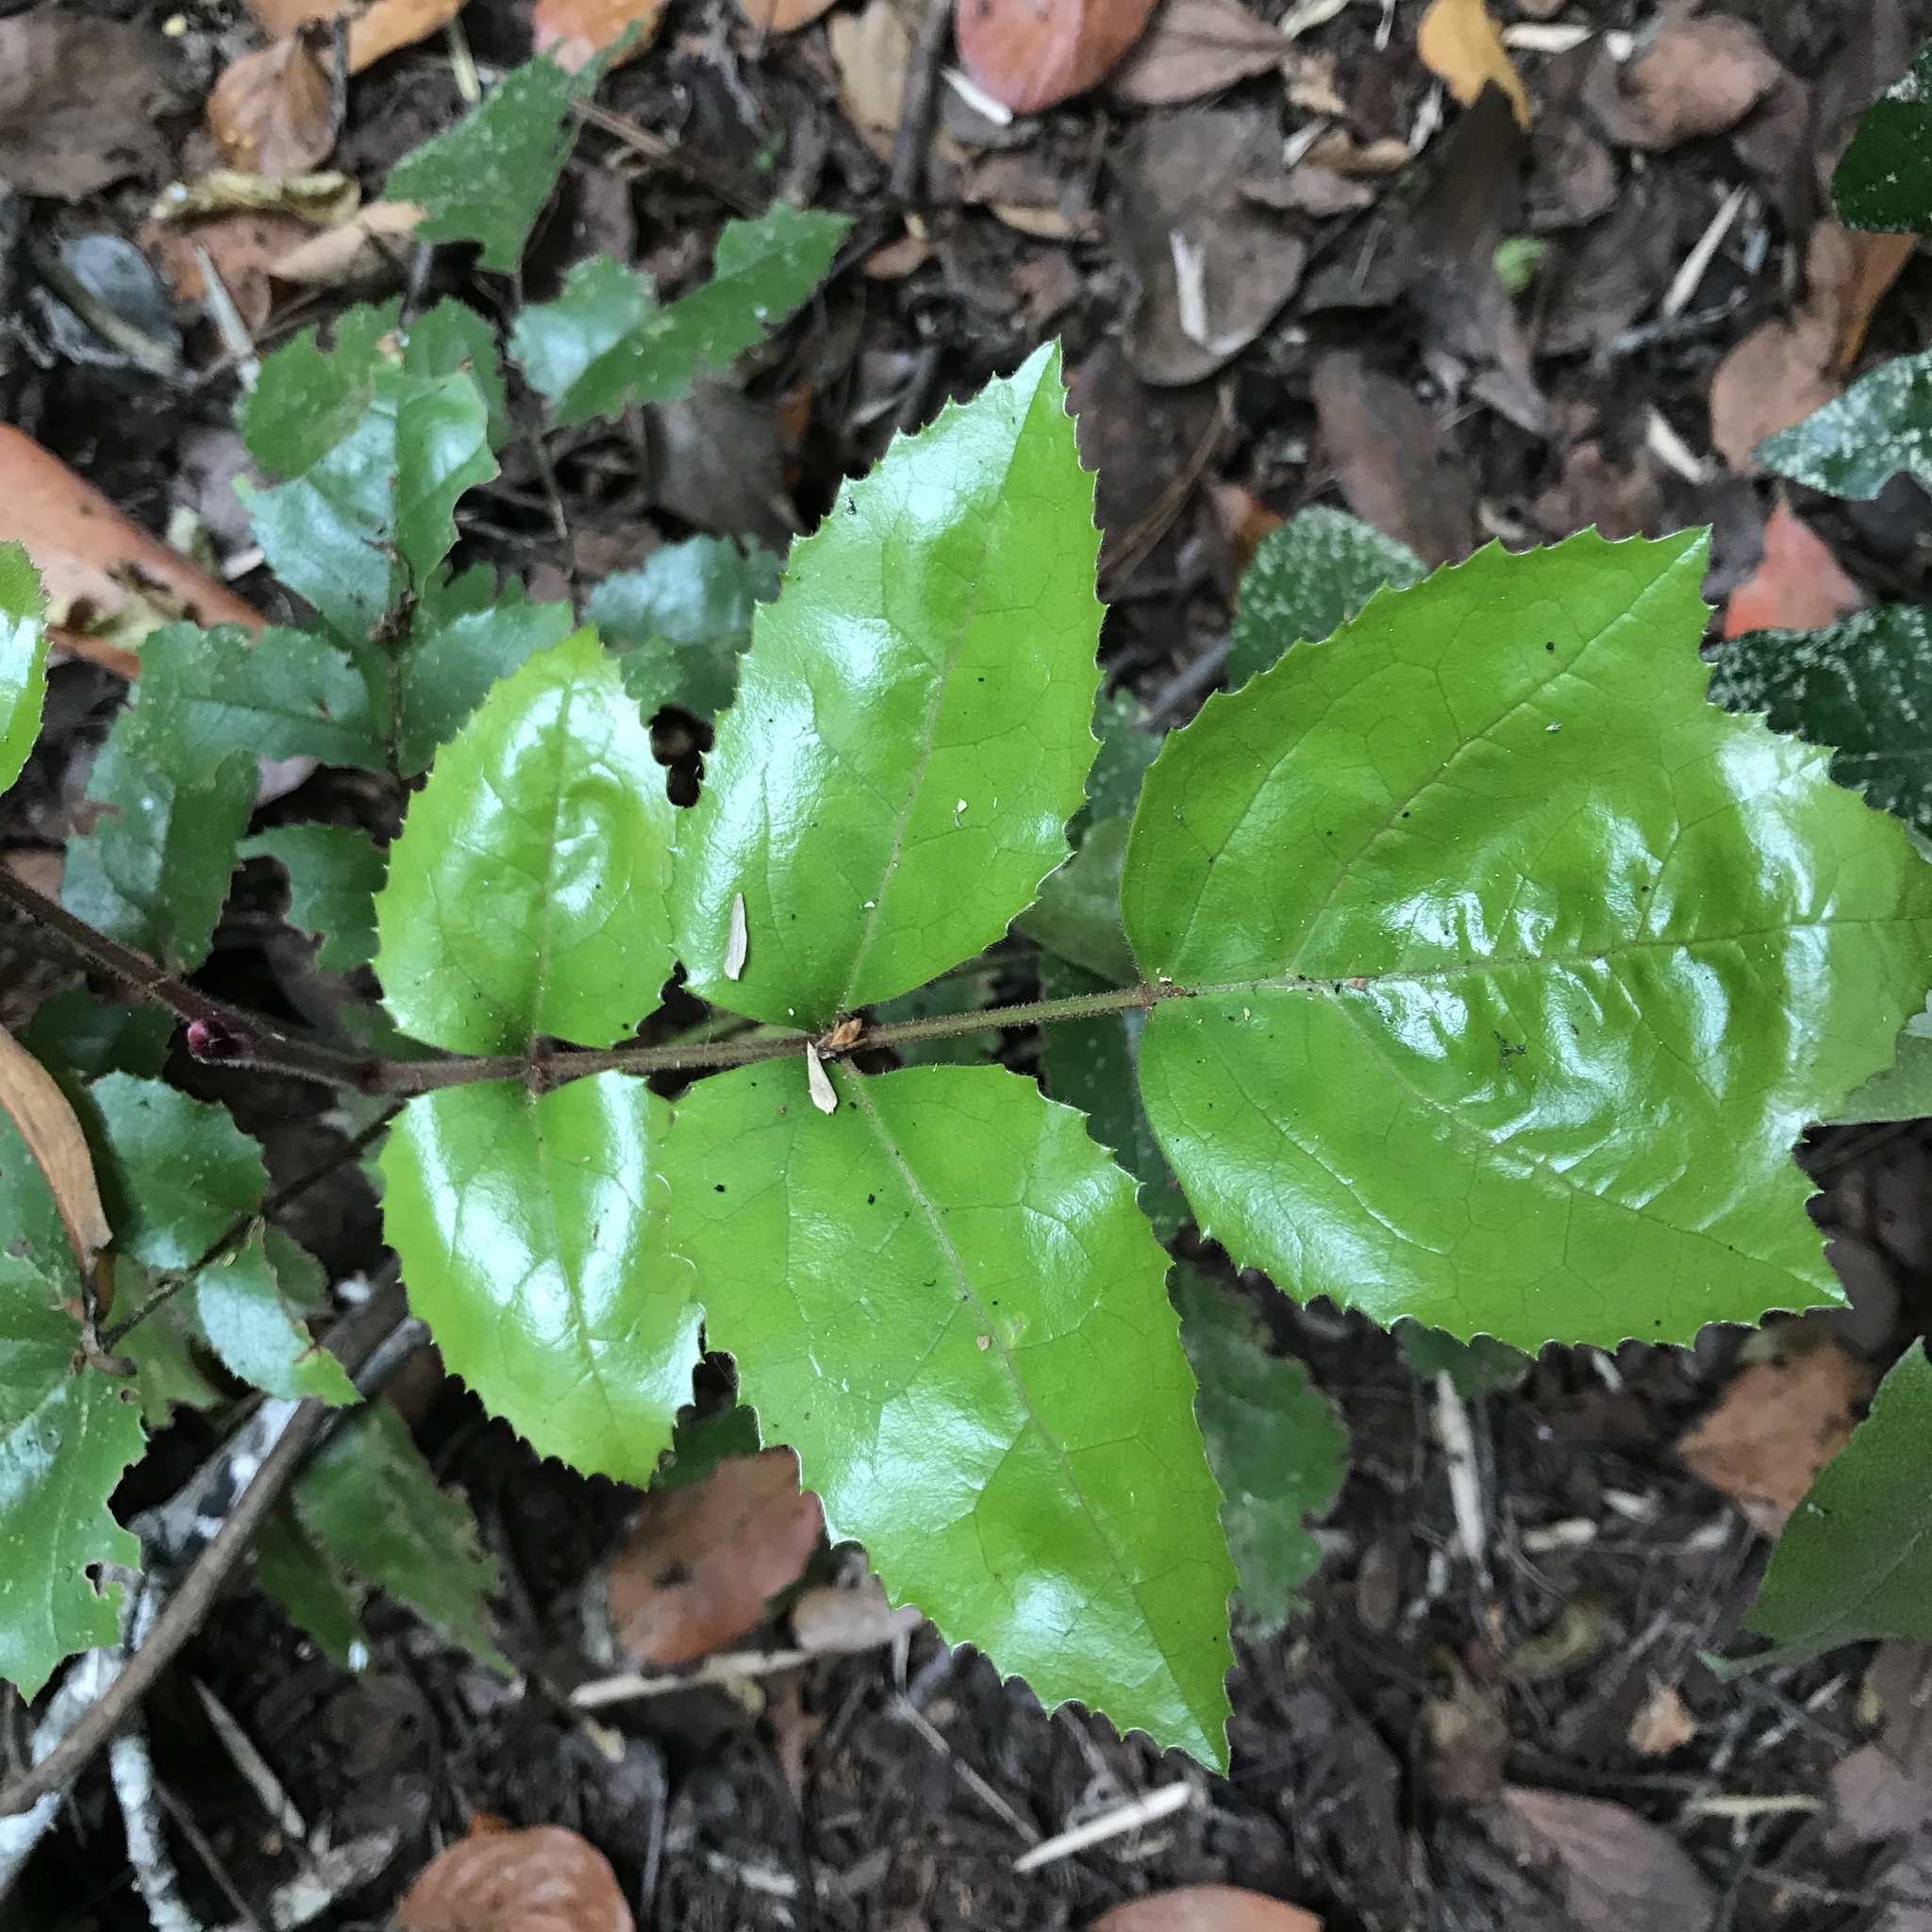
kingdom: Plantae
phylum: Tracheophyta
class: Magnoliopsida
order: Proteales
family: Proteaceae
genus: Gevuina
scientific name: Gevuina avellana
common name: Chilean hazel
